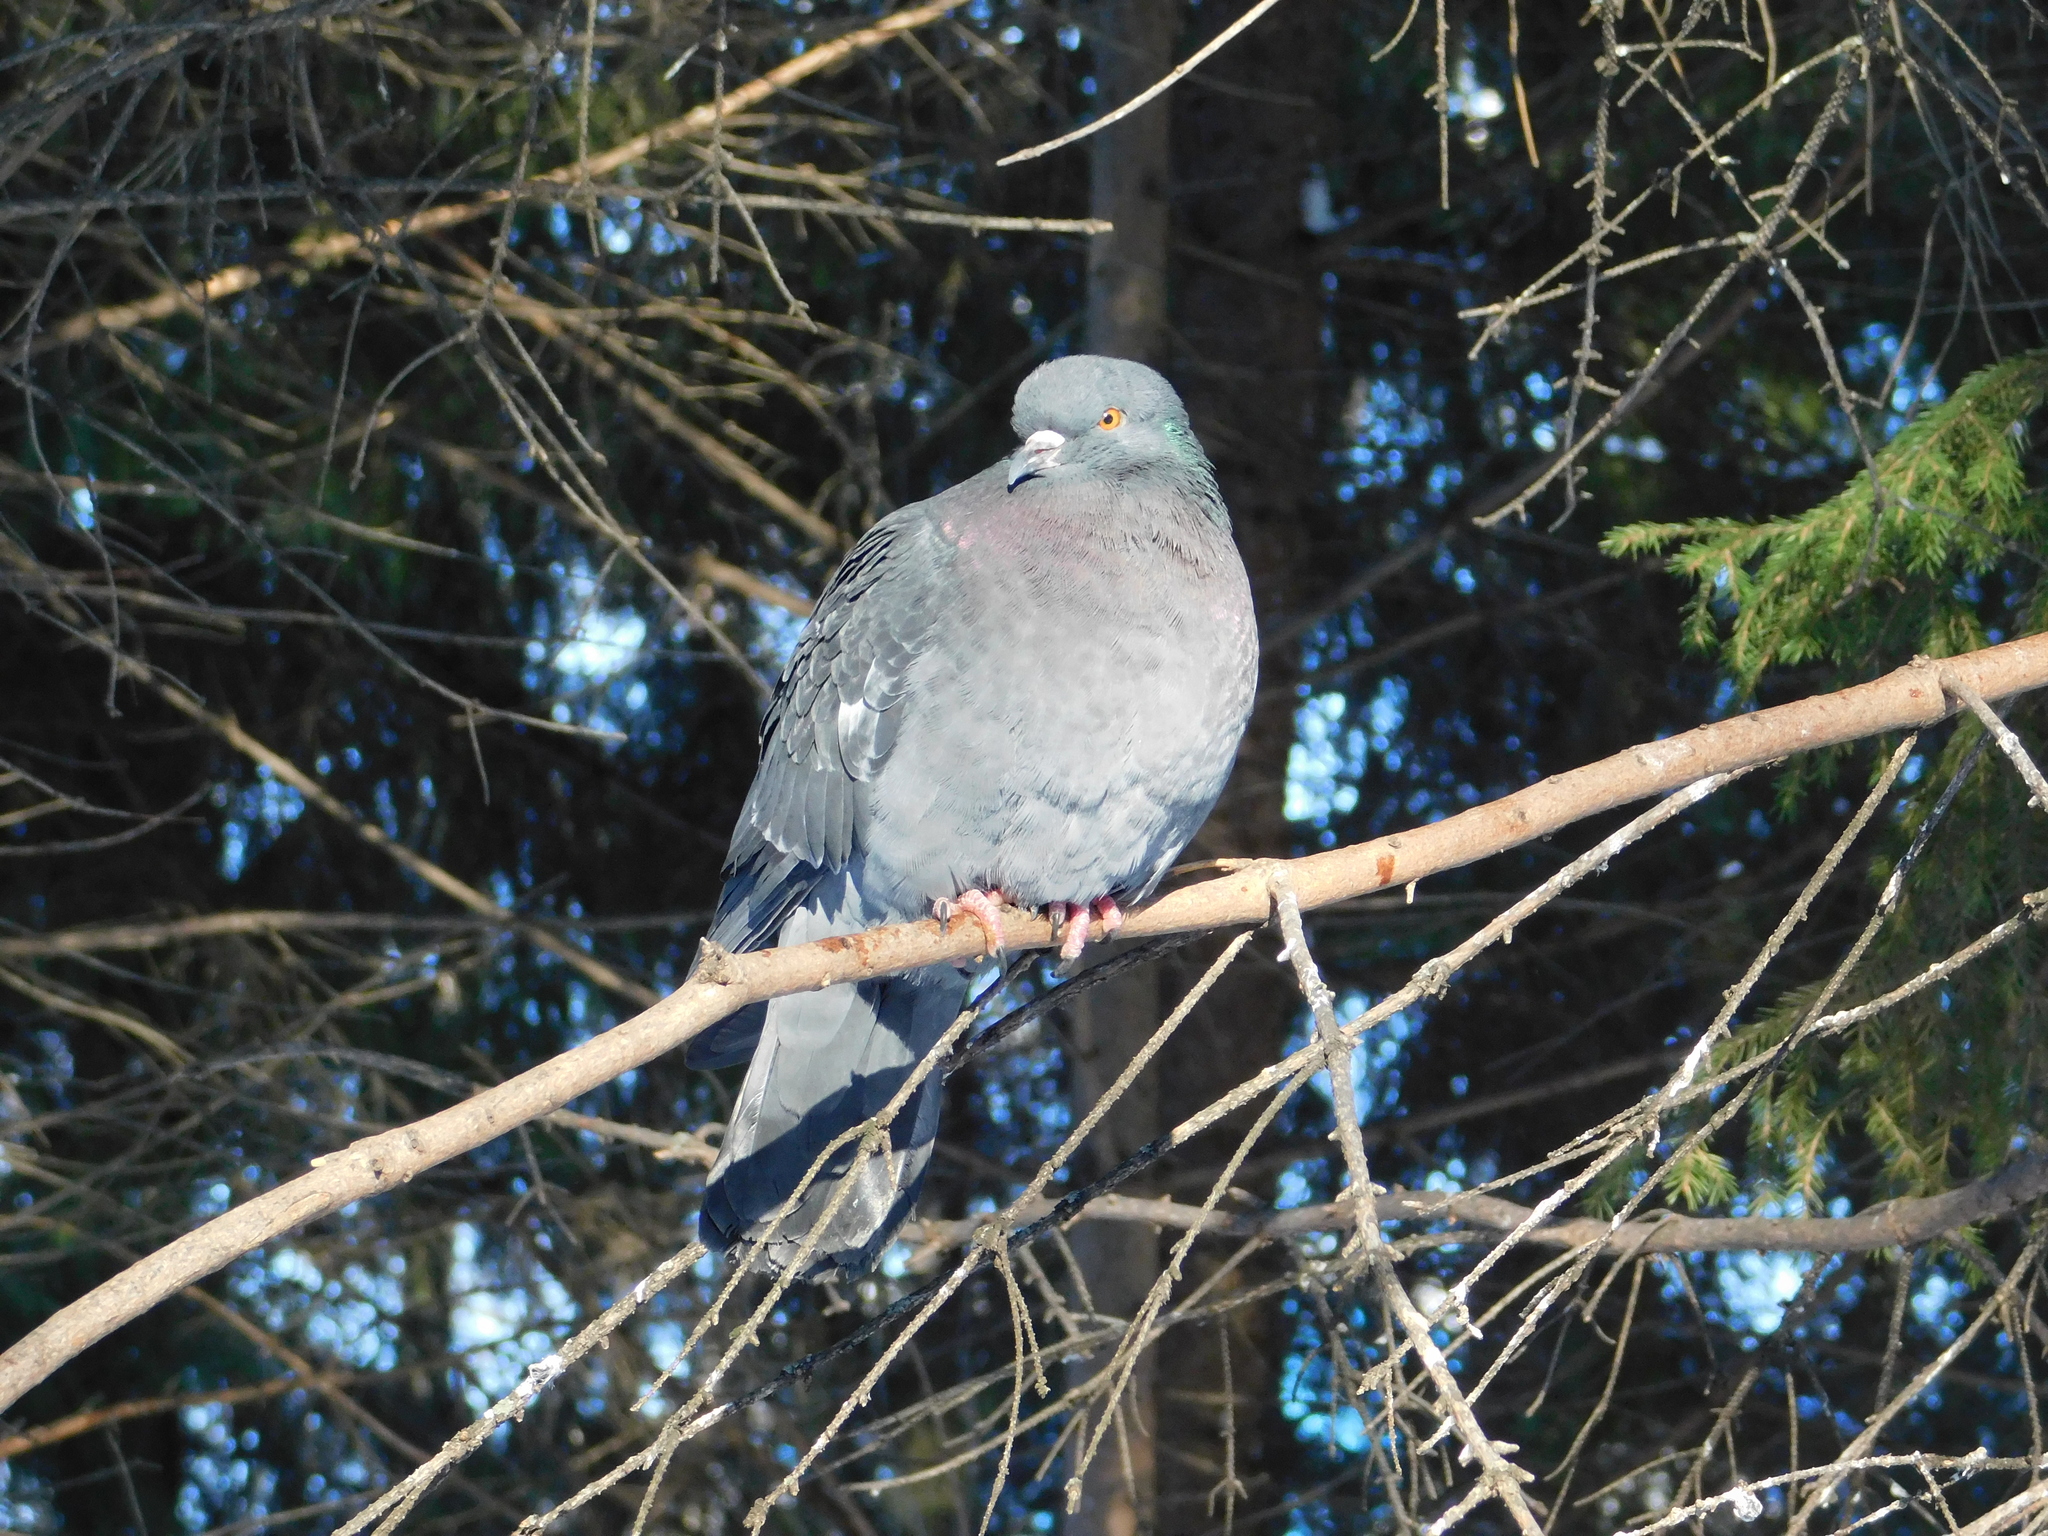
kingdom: Animalia
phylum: Chordata
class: Aves
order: Columbiformes
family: Columbidae
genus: Columba
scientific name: Columba livia
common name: Rock pigeon
